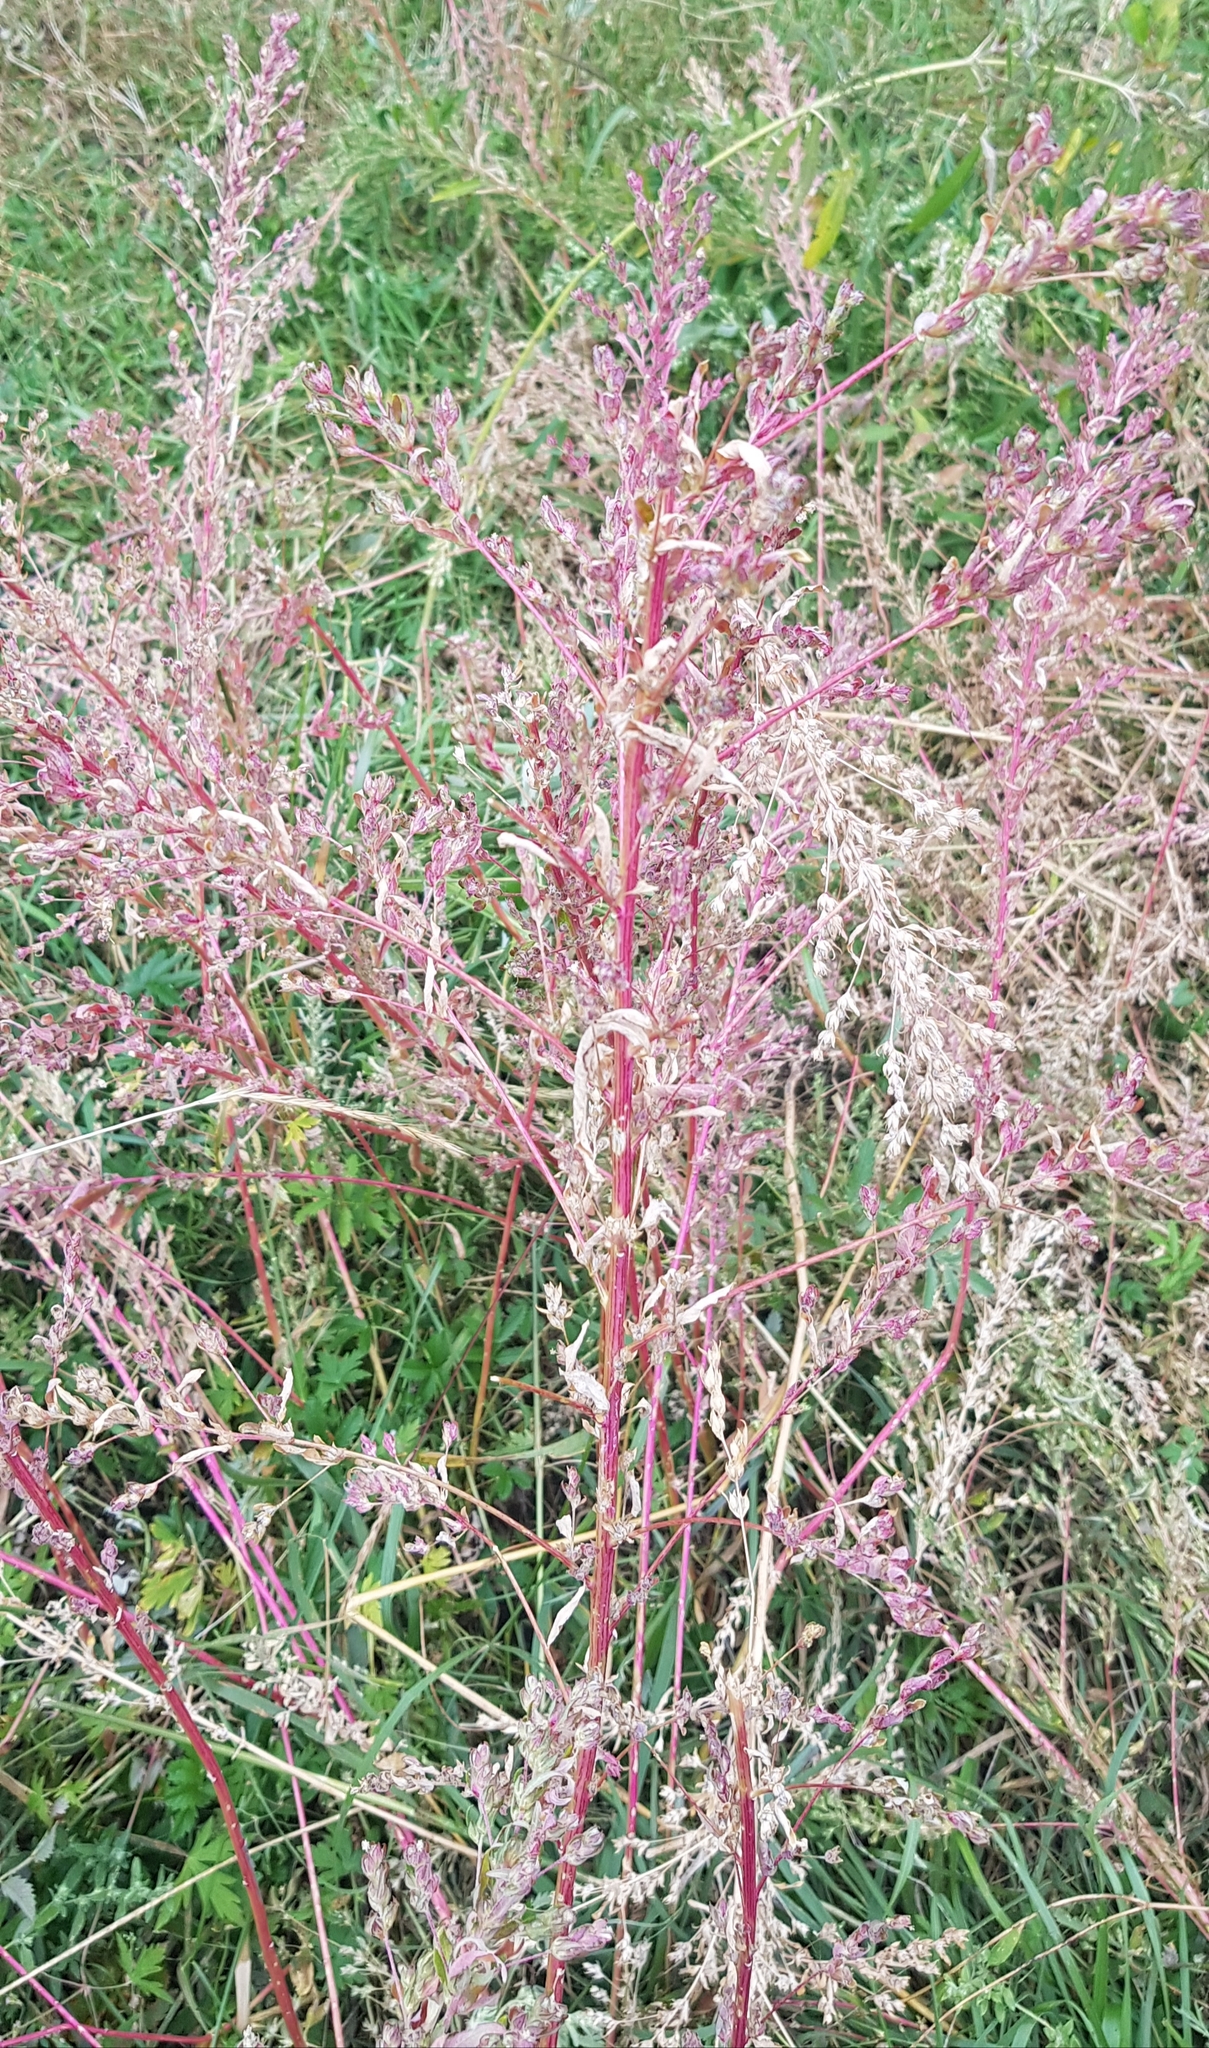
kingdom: Plantae
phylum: Tracheophyta
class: Magnoliopsida
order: Caryophyllales
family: Amaranthaceae
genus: Axyris
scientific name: Axyris amaranthoides
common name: Russian pigweed
